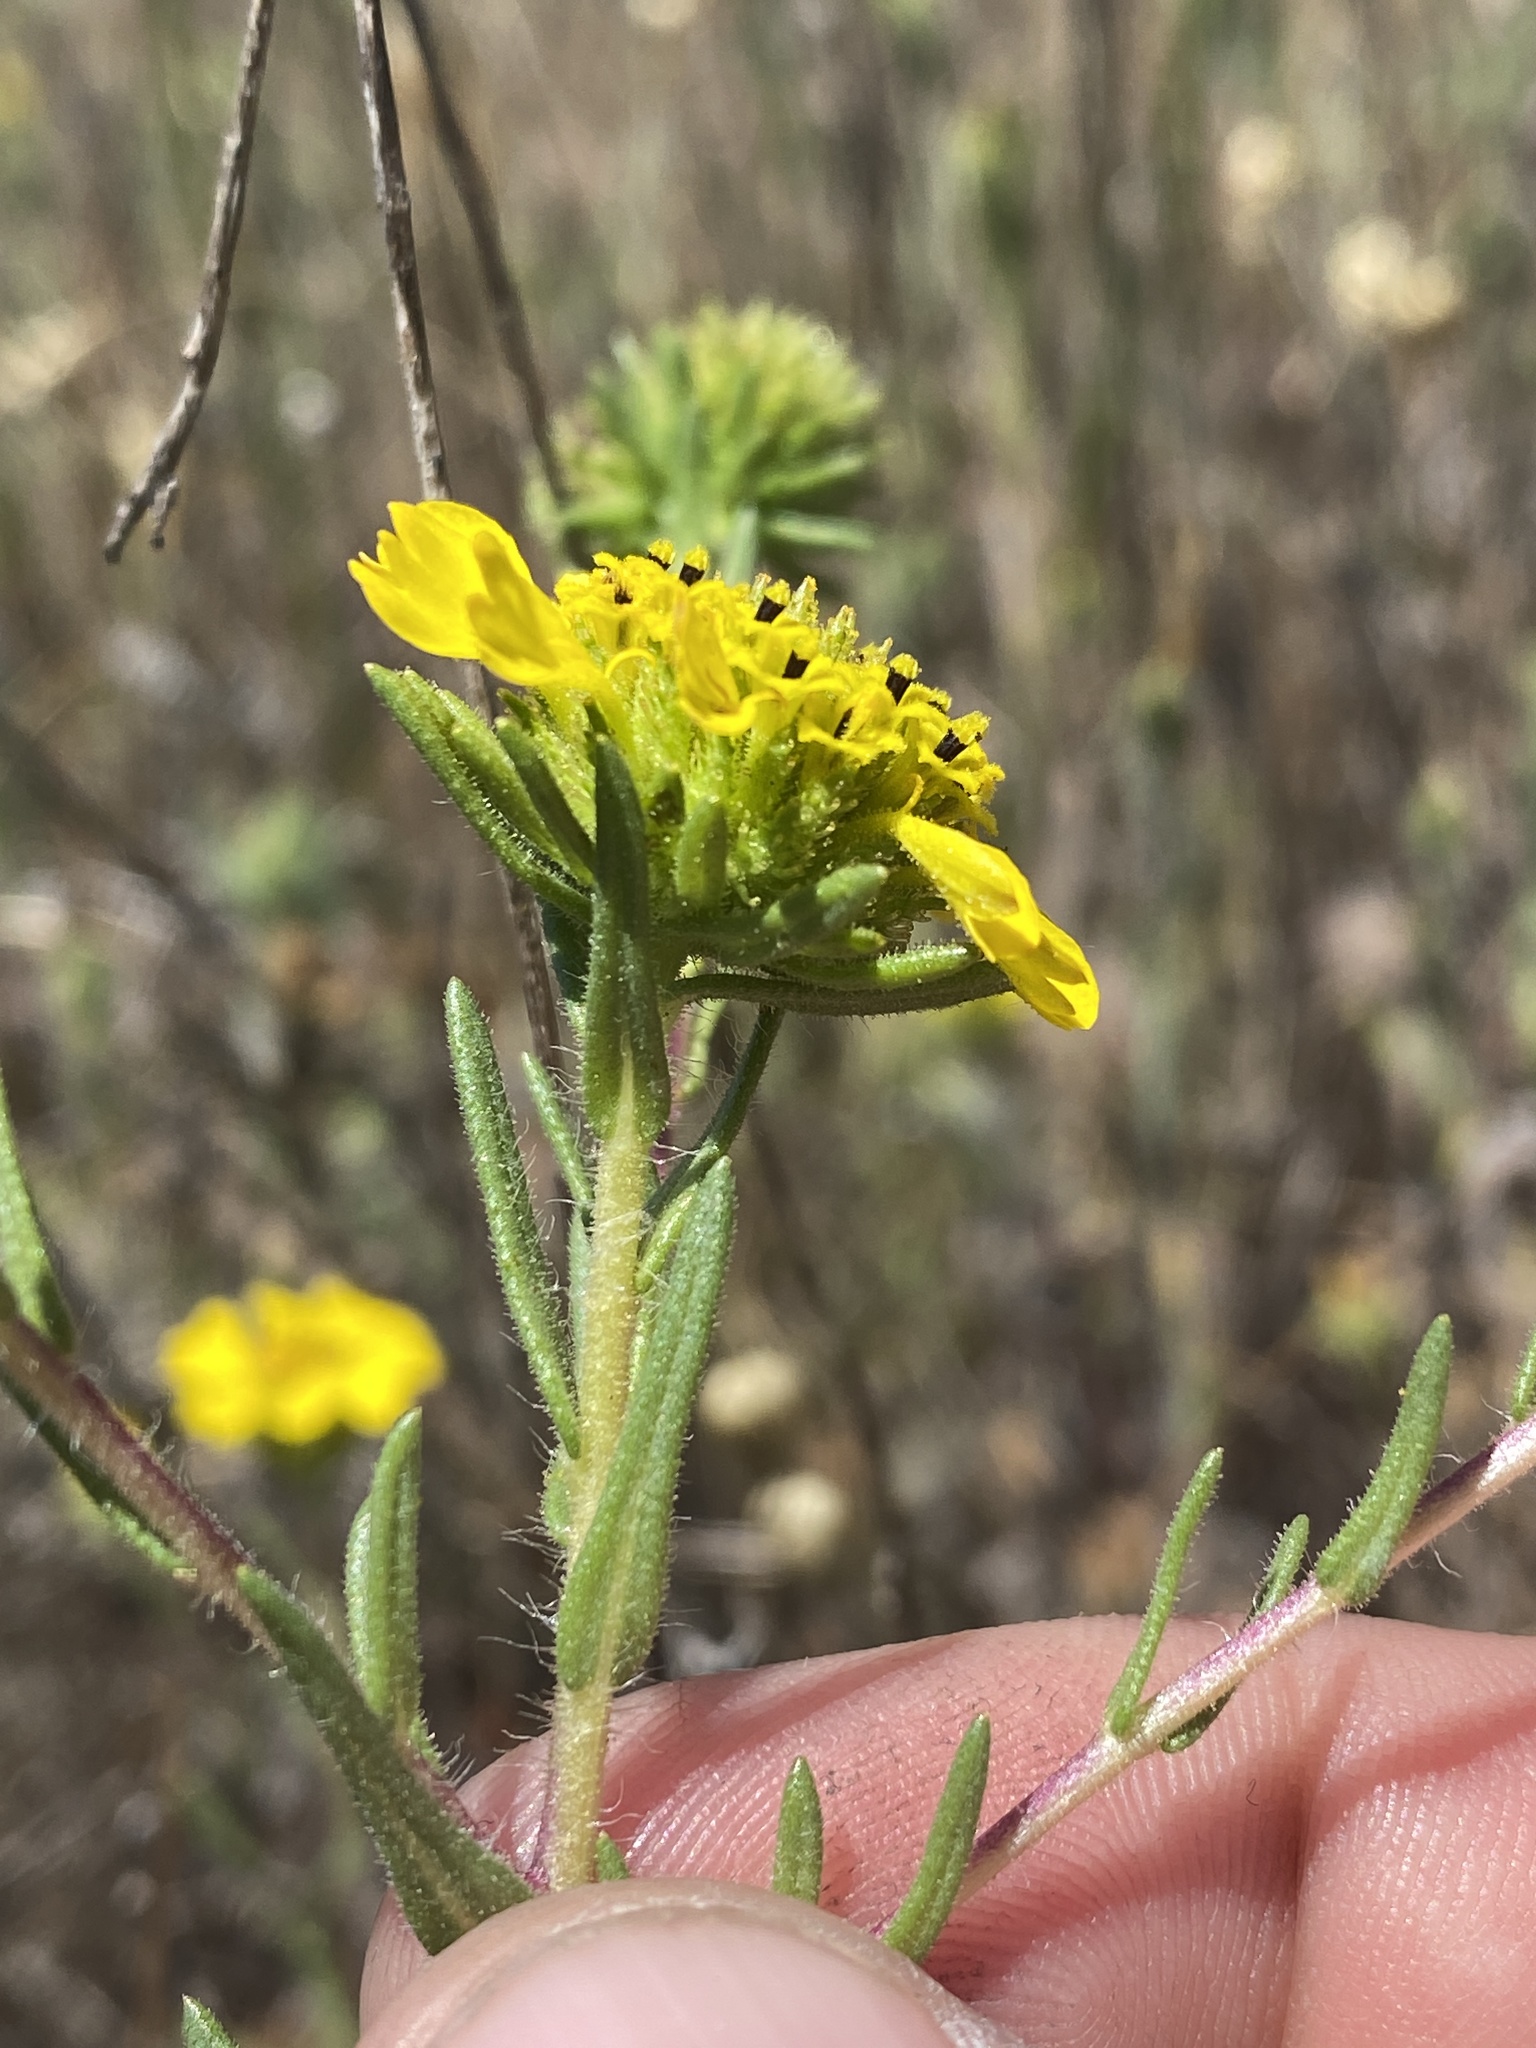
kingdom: Plantae
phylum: Tracheophyta
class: Magnoliopsida
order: Asterales
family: Asteraceae
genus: Holocarpha
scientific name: Holocarpha macradenia
